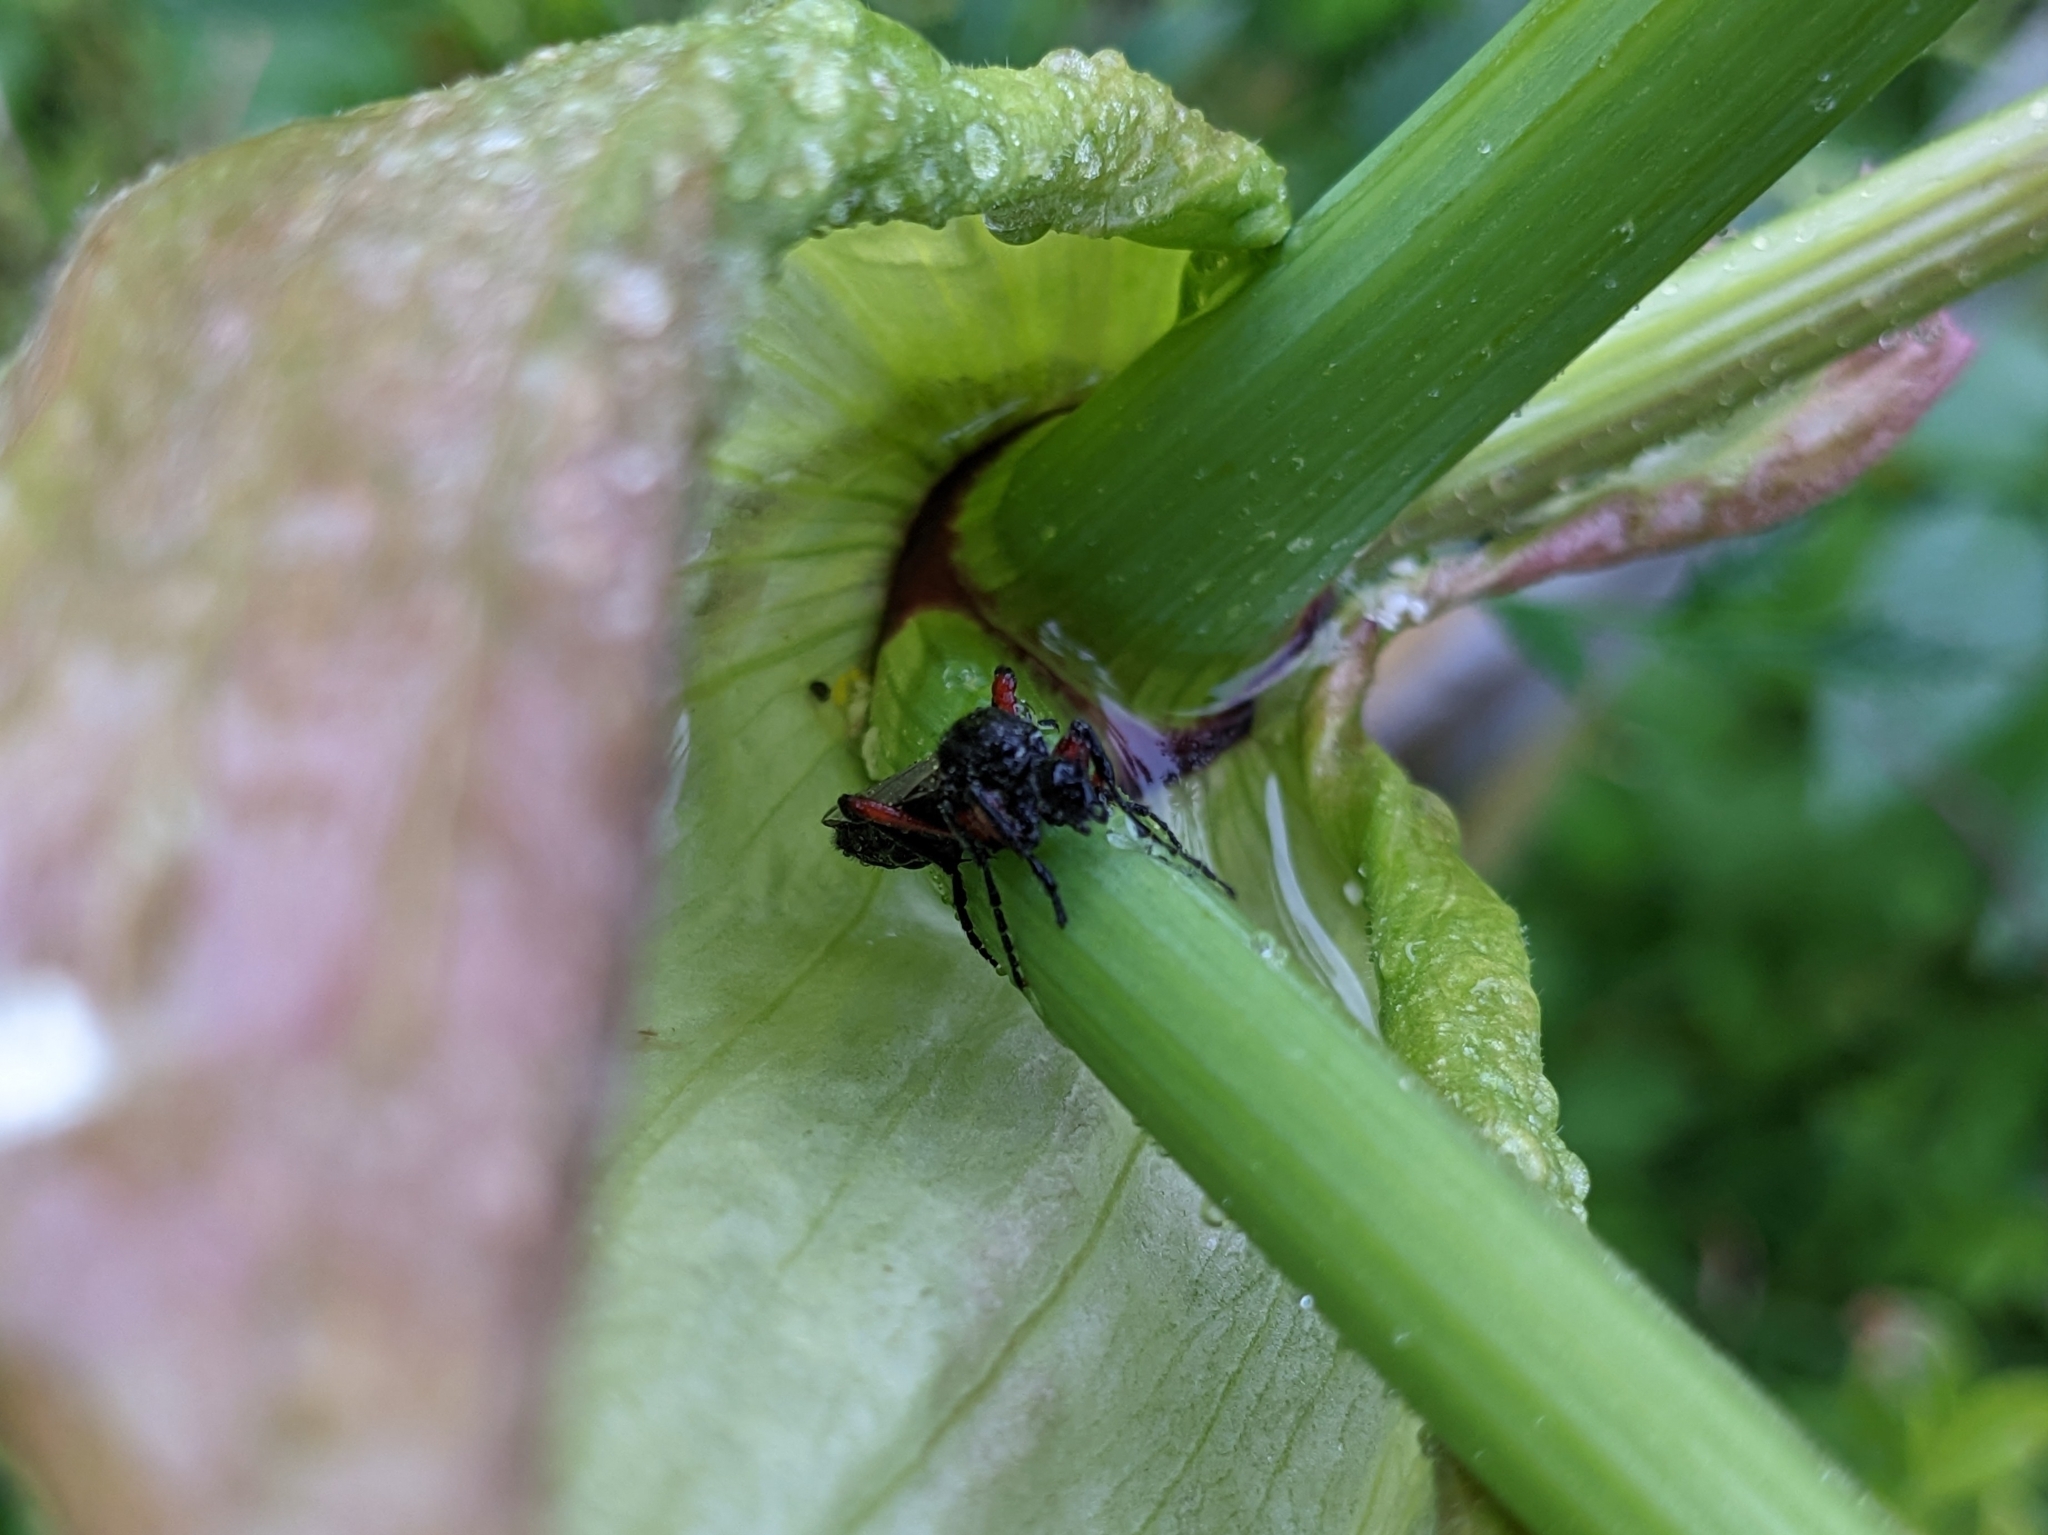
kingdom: Animalia
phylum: Arthropoda
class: Insecta
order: Diptera
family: Bibionidae
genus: Bibio
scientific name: Bibio pomonae
